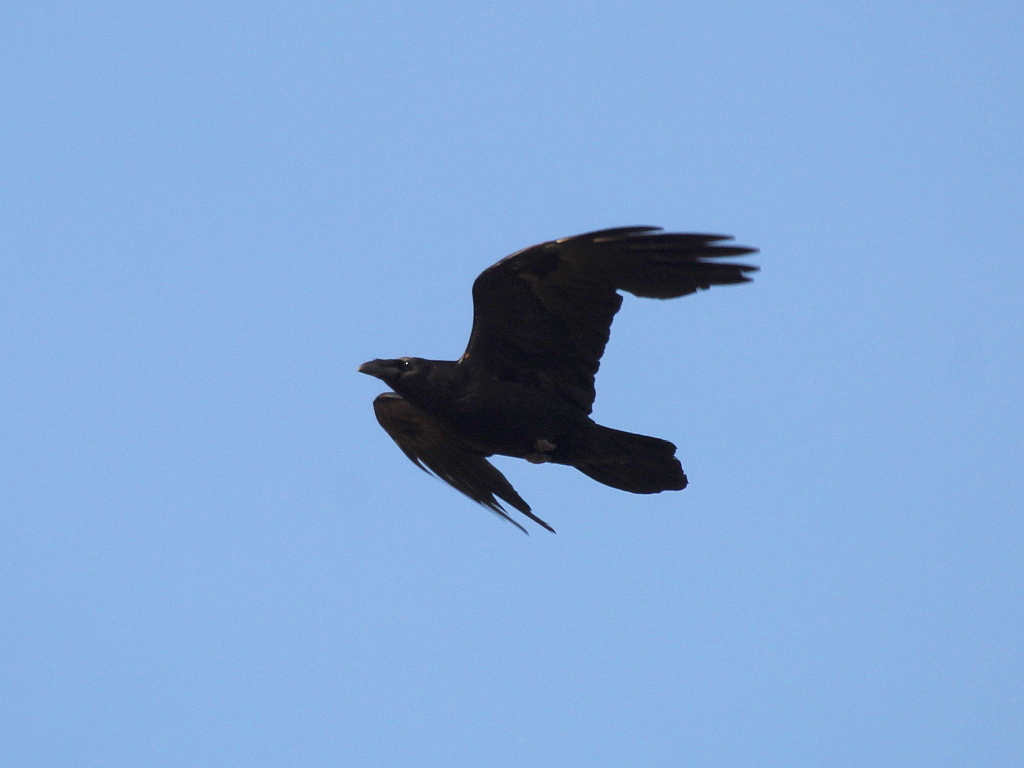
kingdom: Animalia
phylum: Chordata
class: Aves
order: Passeriformes
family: Corvidae
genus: Corvus
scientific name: Corvus corax
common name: Common raven
